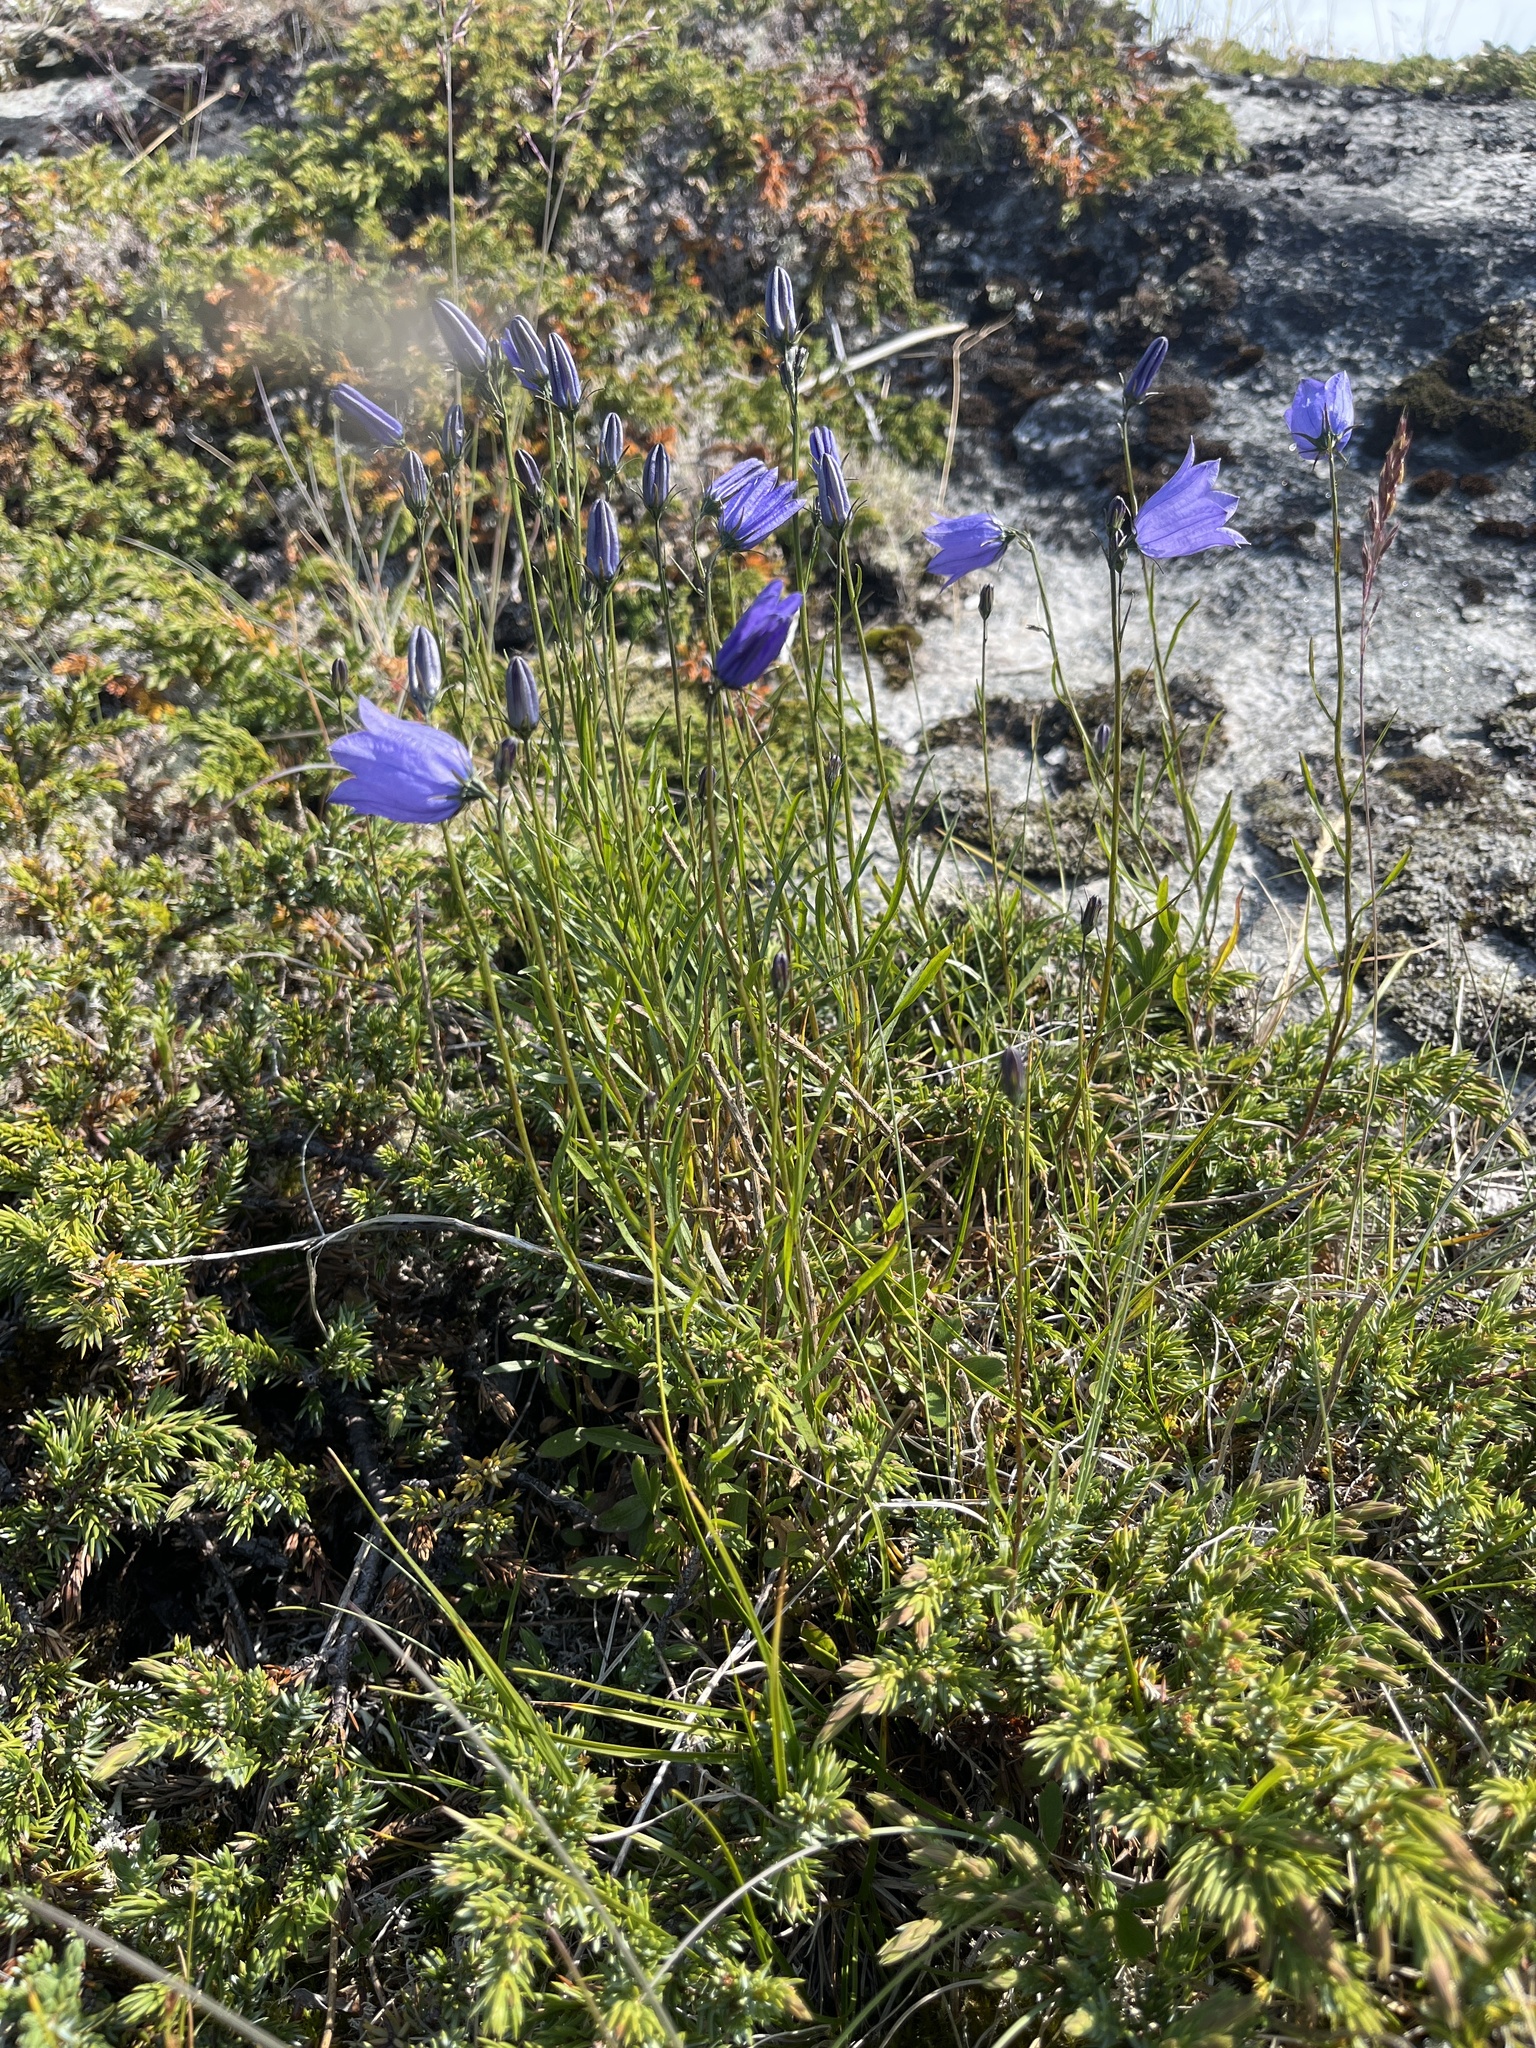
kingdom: Plantae
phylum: Tracheophyta
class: Magnoliopsida
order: Asterales
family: Campanulaceae
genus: Campanula
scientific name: Campanula giesekiana
